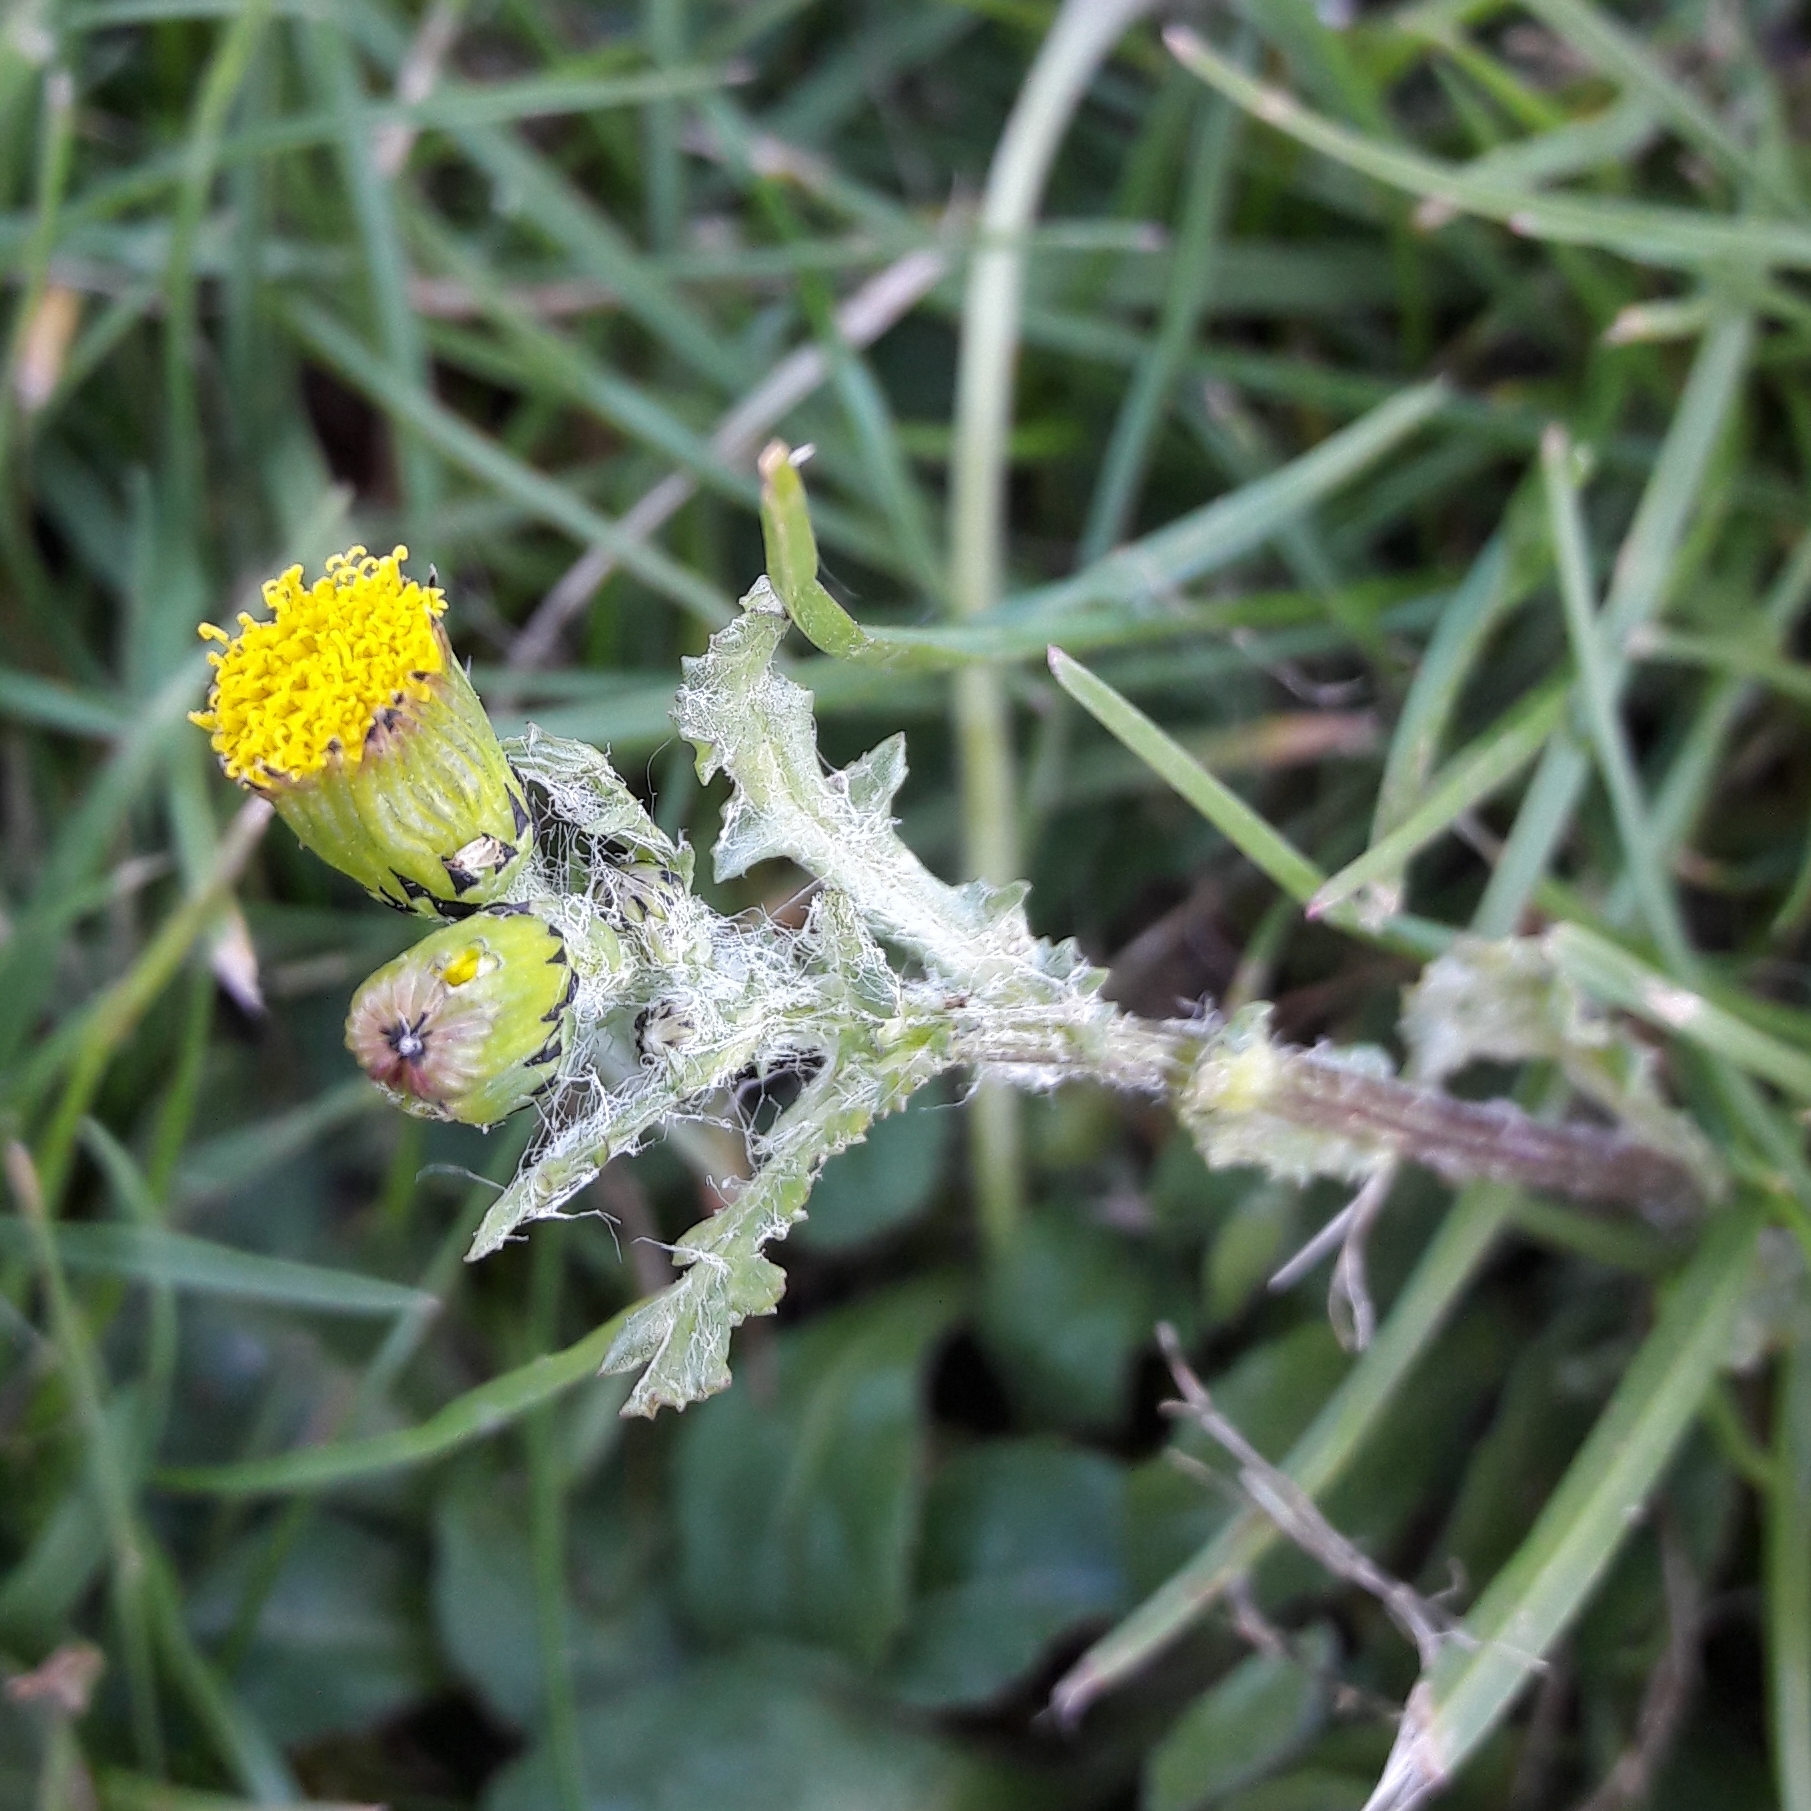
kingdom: Plantae
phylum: Tracheophyta
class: Magnoliopsida
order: Asterales
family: Asteraceae
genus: Senecio
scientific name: Senecio vulgaris
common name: Old-man-in-the-spring
